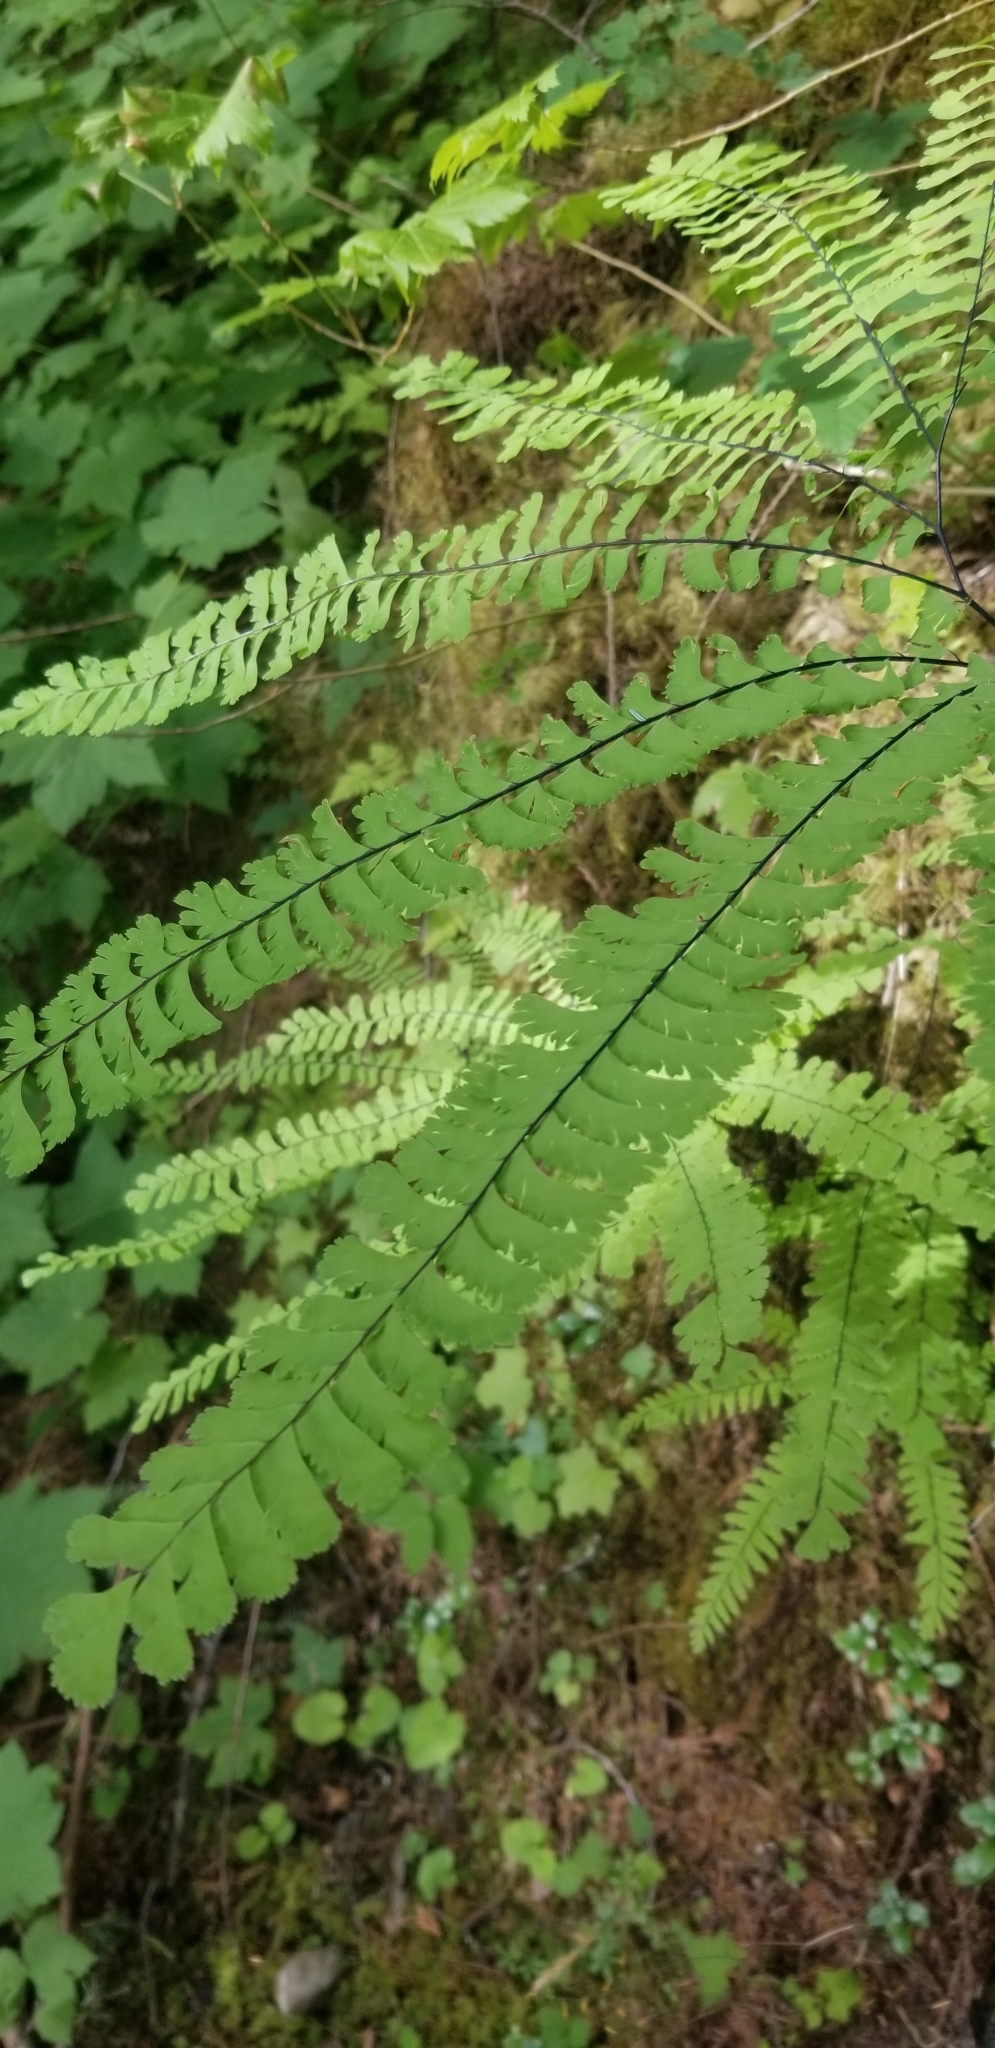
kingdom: Plantae
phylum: Tracheophyta
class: Polypodiopsida
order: Polypodiales
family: Pteridaceae
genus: Adiantum
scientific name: Adiantum aleuticum
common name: Aleutian maidenhair fern
